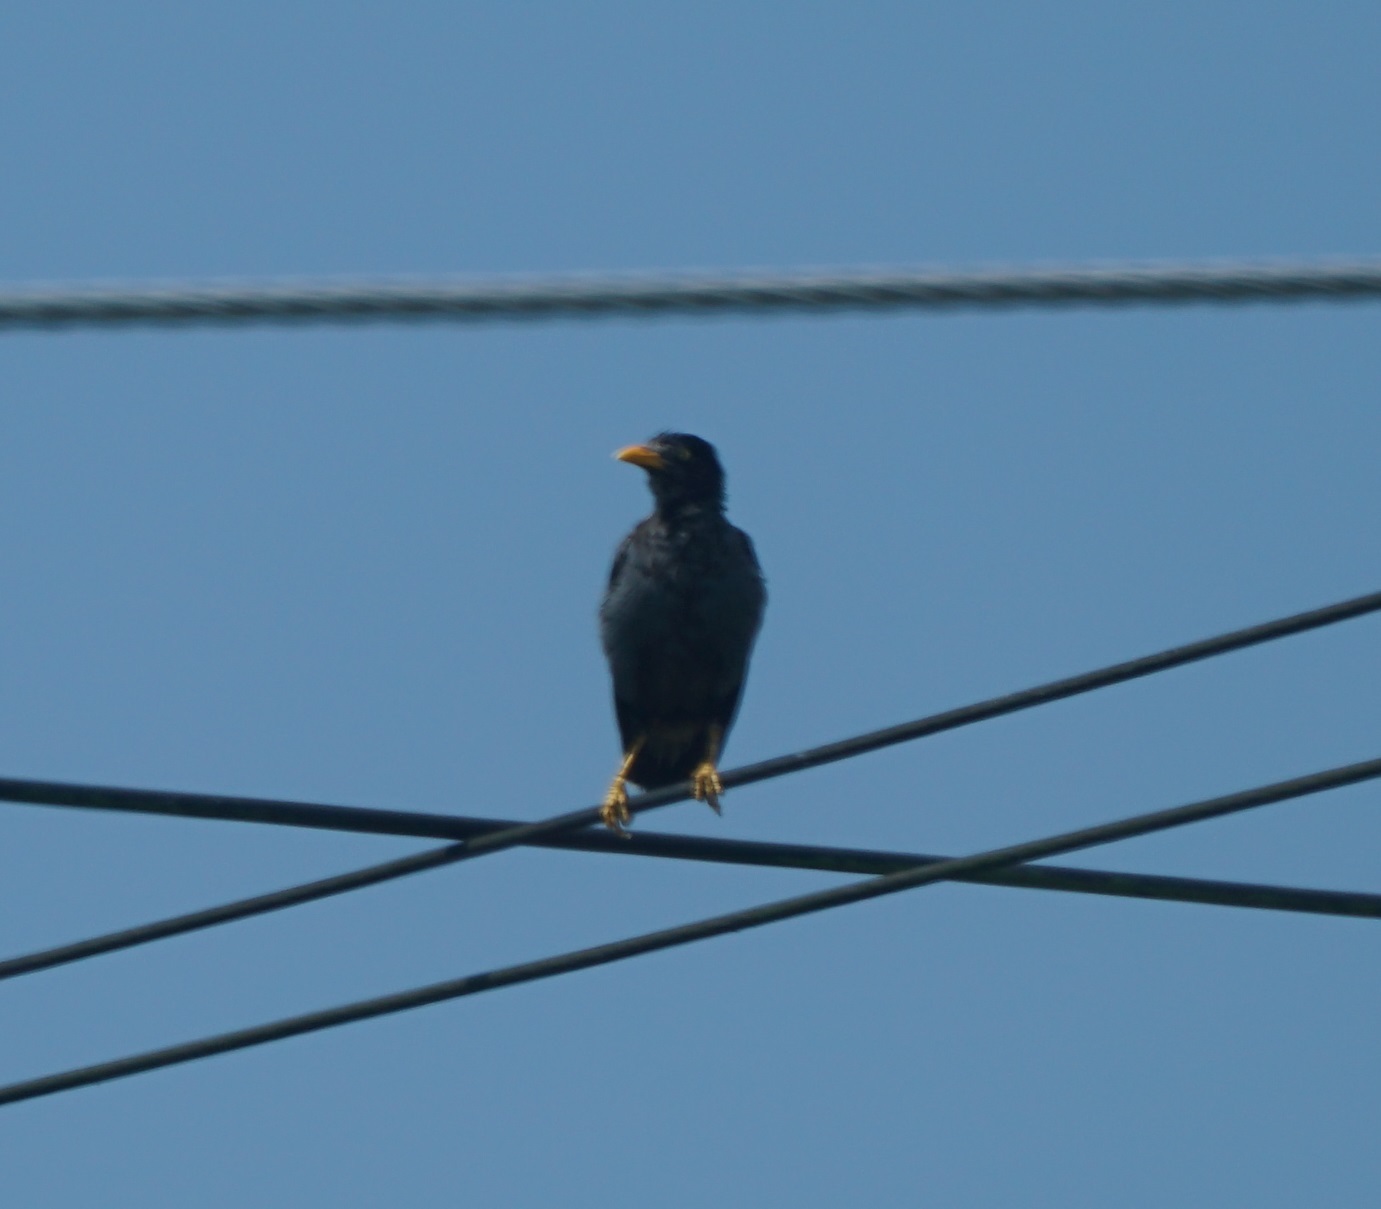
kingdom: Animalia
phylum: Chordata
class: Aves
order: Passeriformes
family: Sturnidae
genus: Acridotheres
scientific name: Acridotheres javanicus
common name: Javan myna
